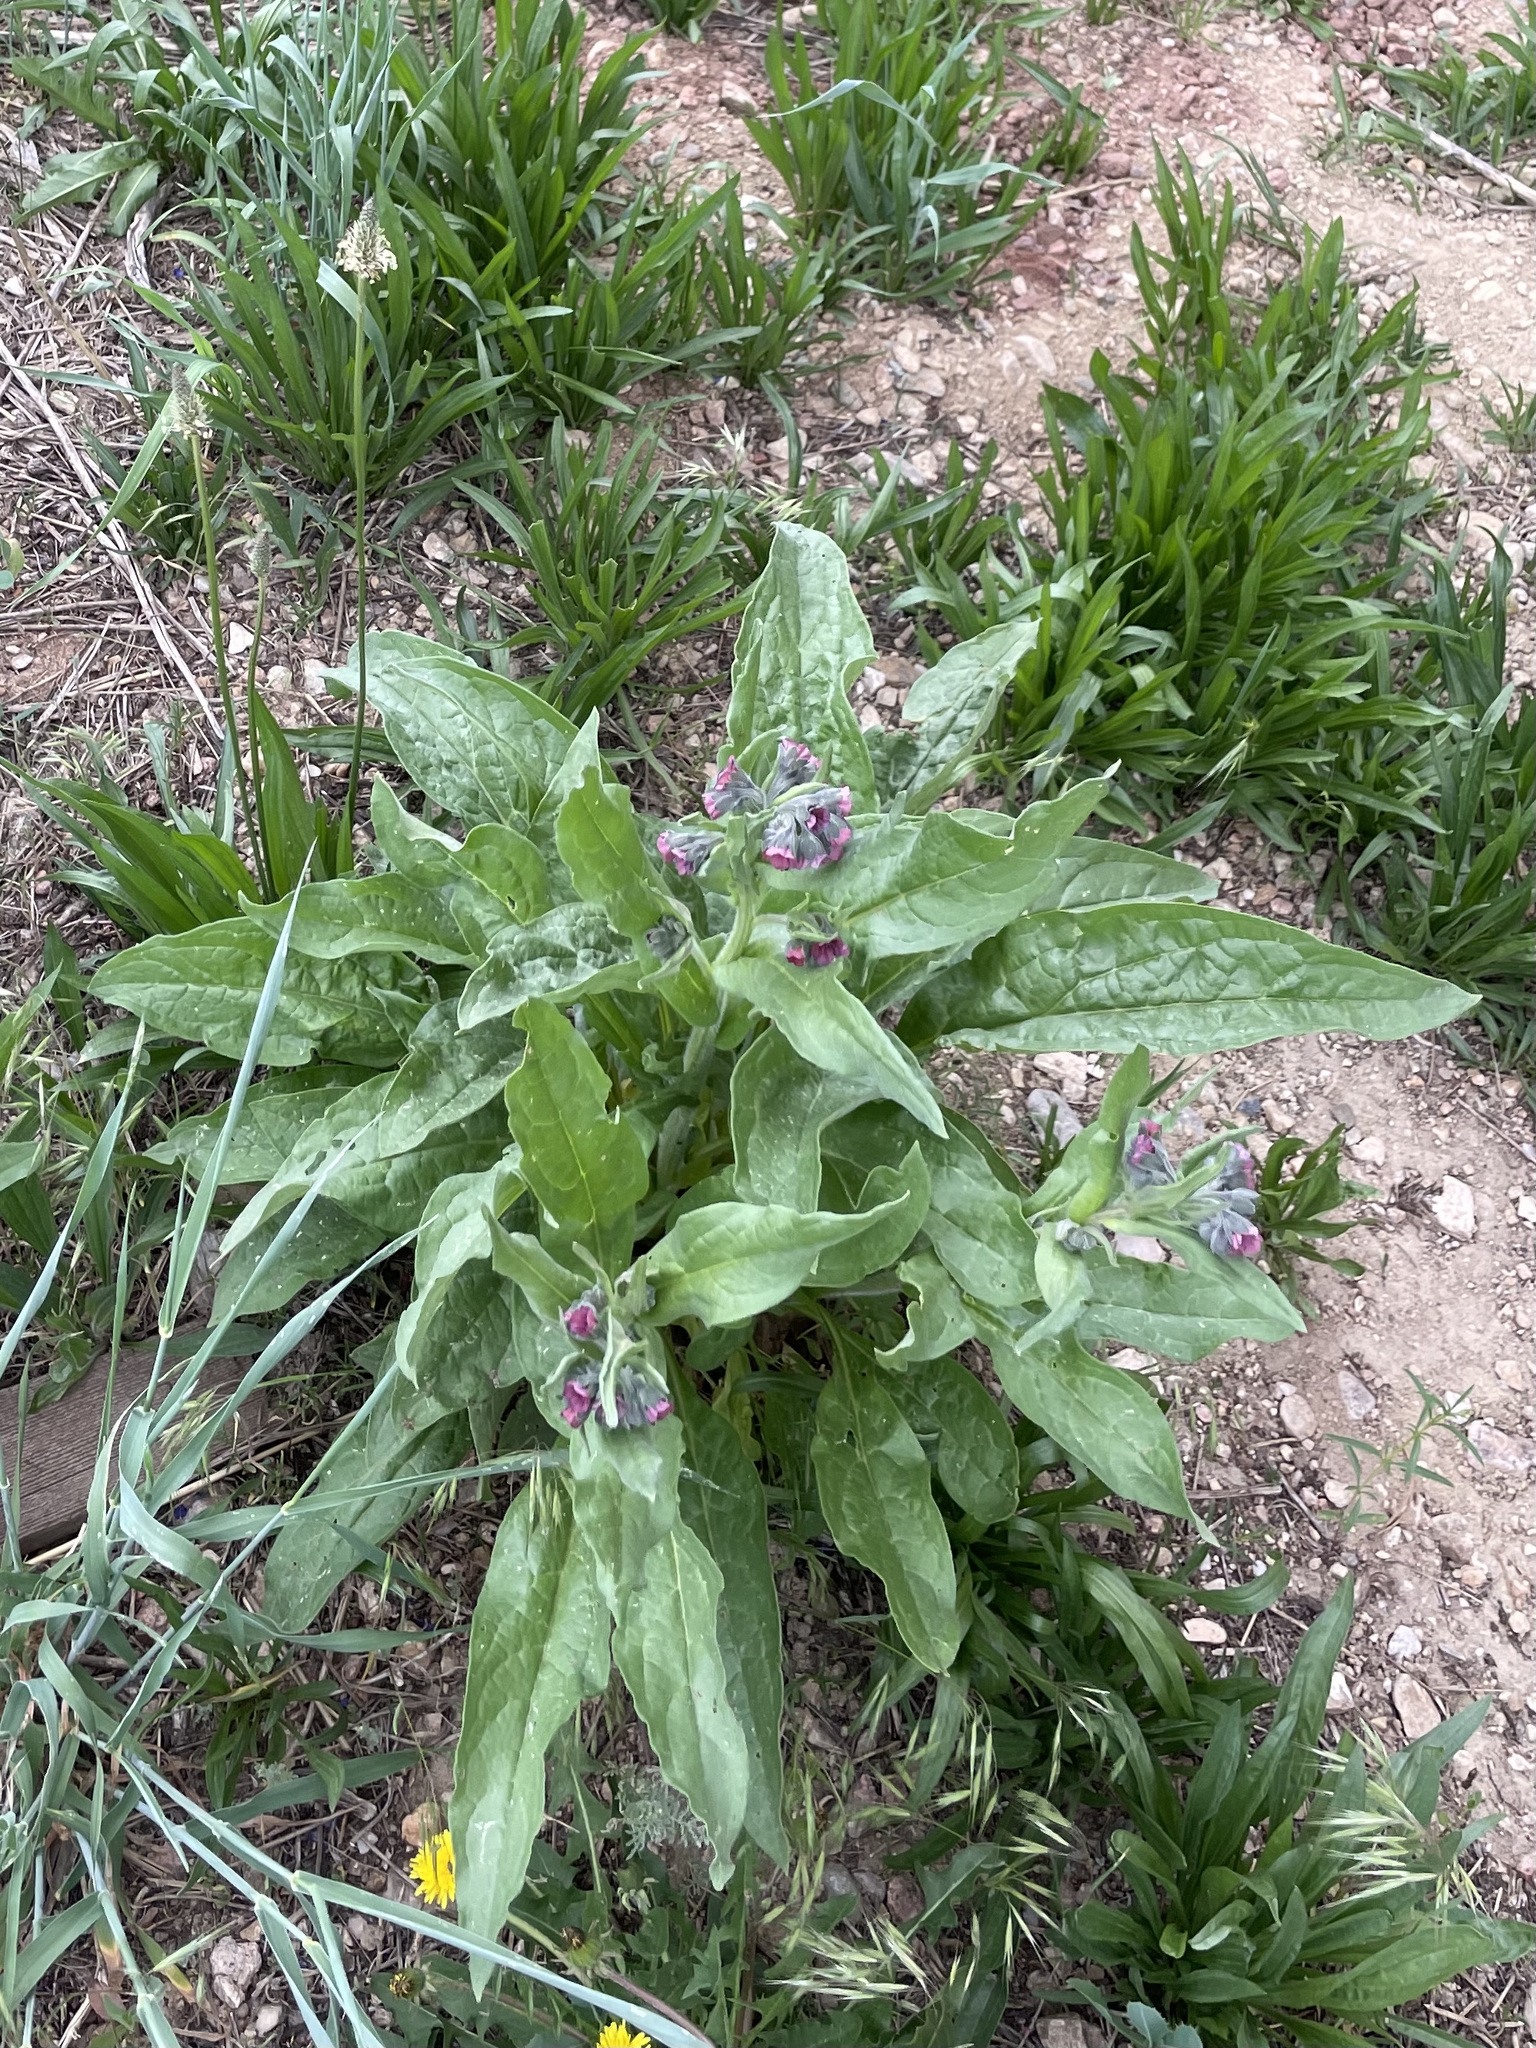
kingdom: Plantae
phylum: Tracheophyta
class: Magnoliopsida
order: Boraginales
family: Boraginaceae
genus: Cynoglossum
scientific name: Cynoglossum officinale
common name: Hound's-tongue
